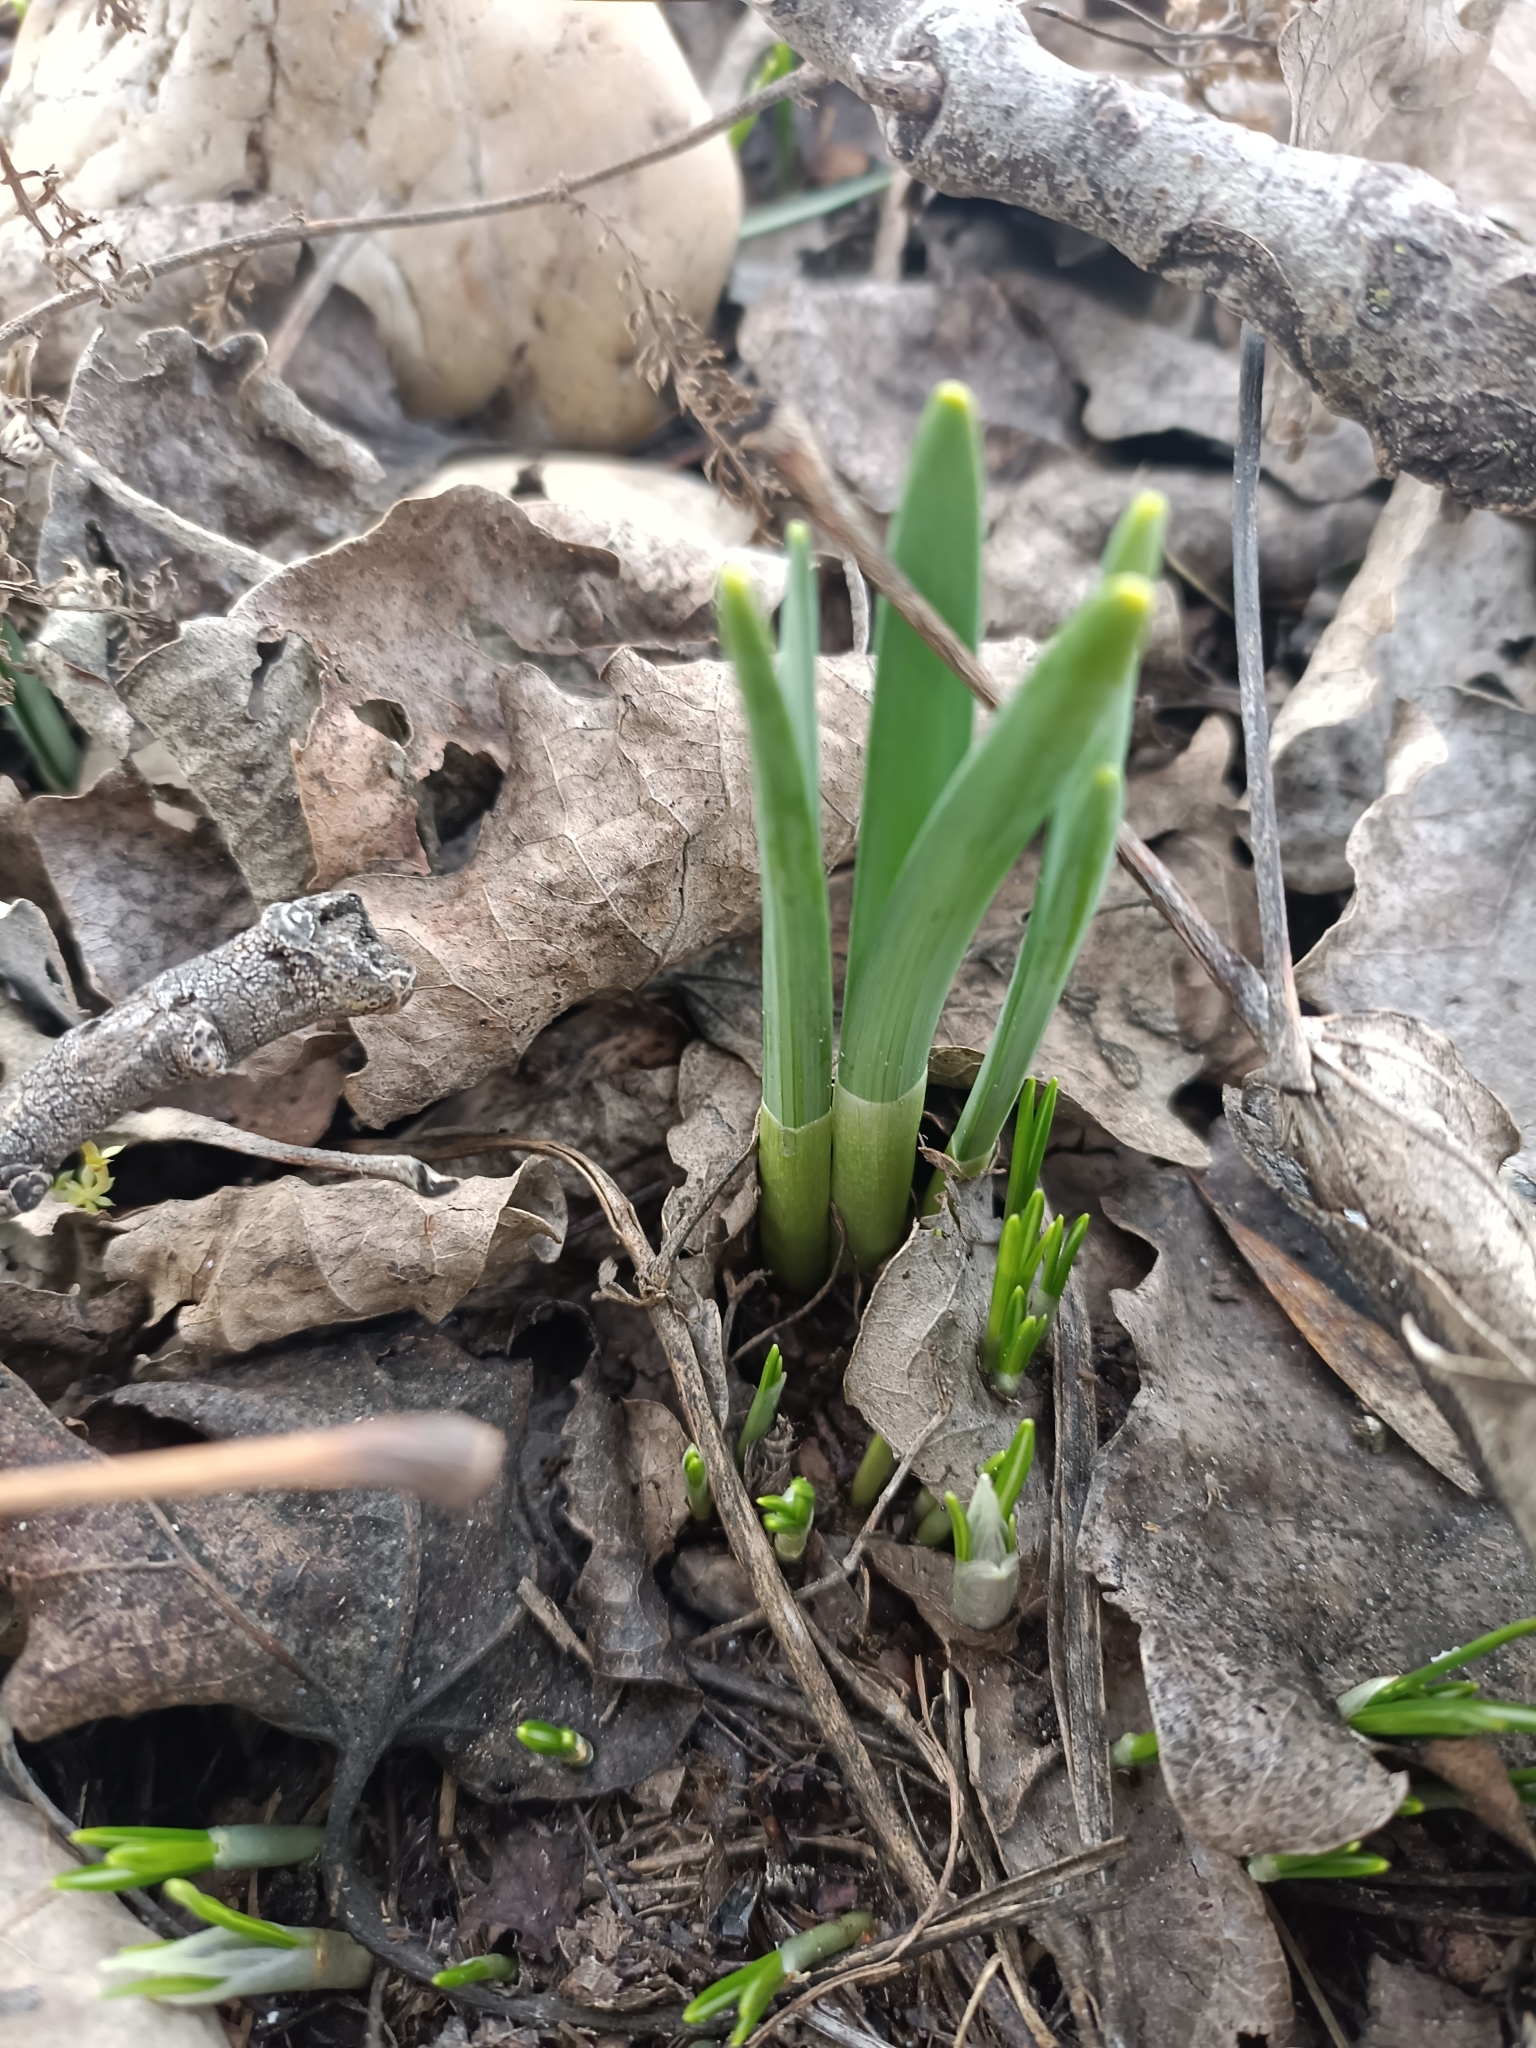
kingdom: Plantae
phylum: Tracheophyta
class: Liliopsida
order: Asparagales
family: Amaryllidaceae
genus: Galanthus
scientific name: Galanthus nivalis
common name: Snowdrop
